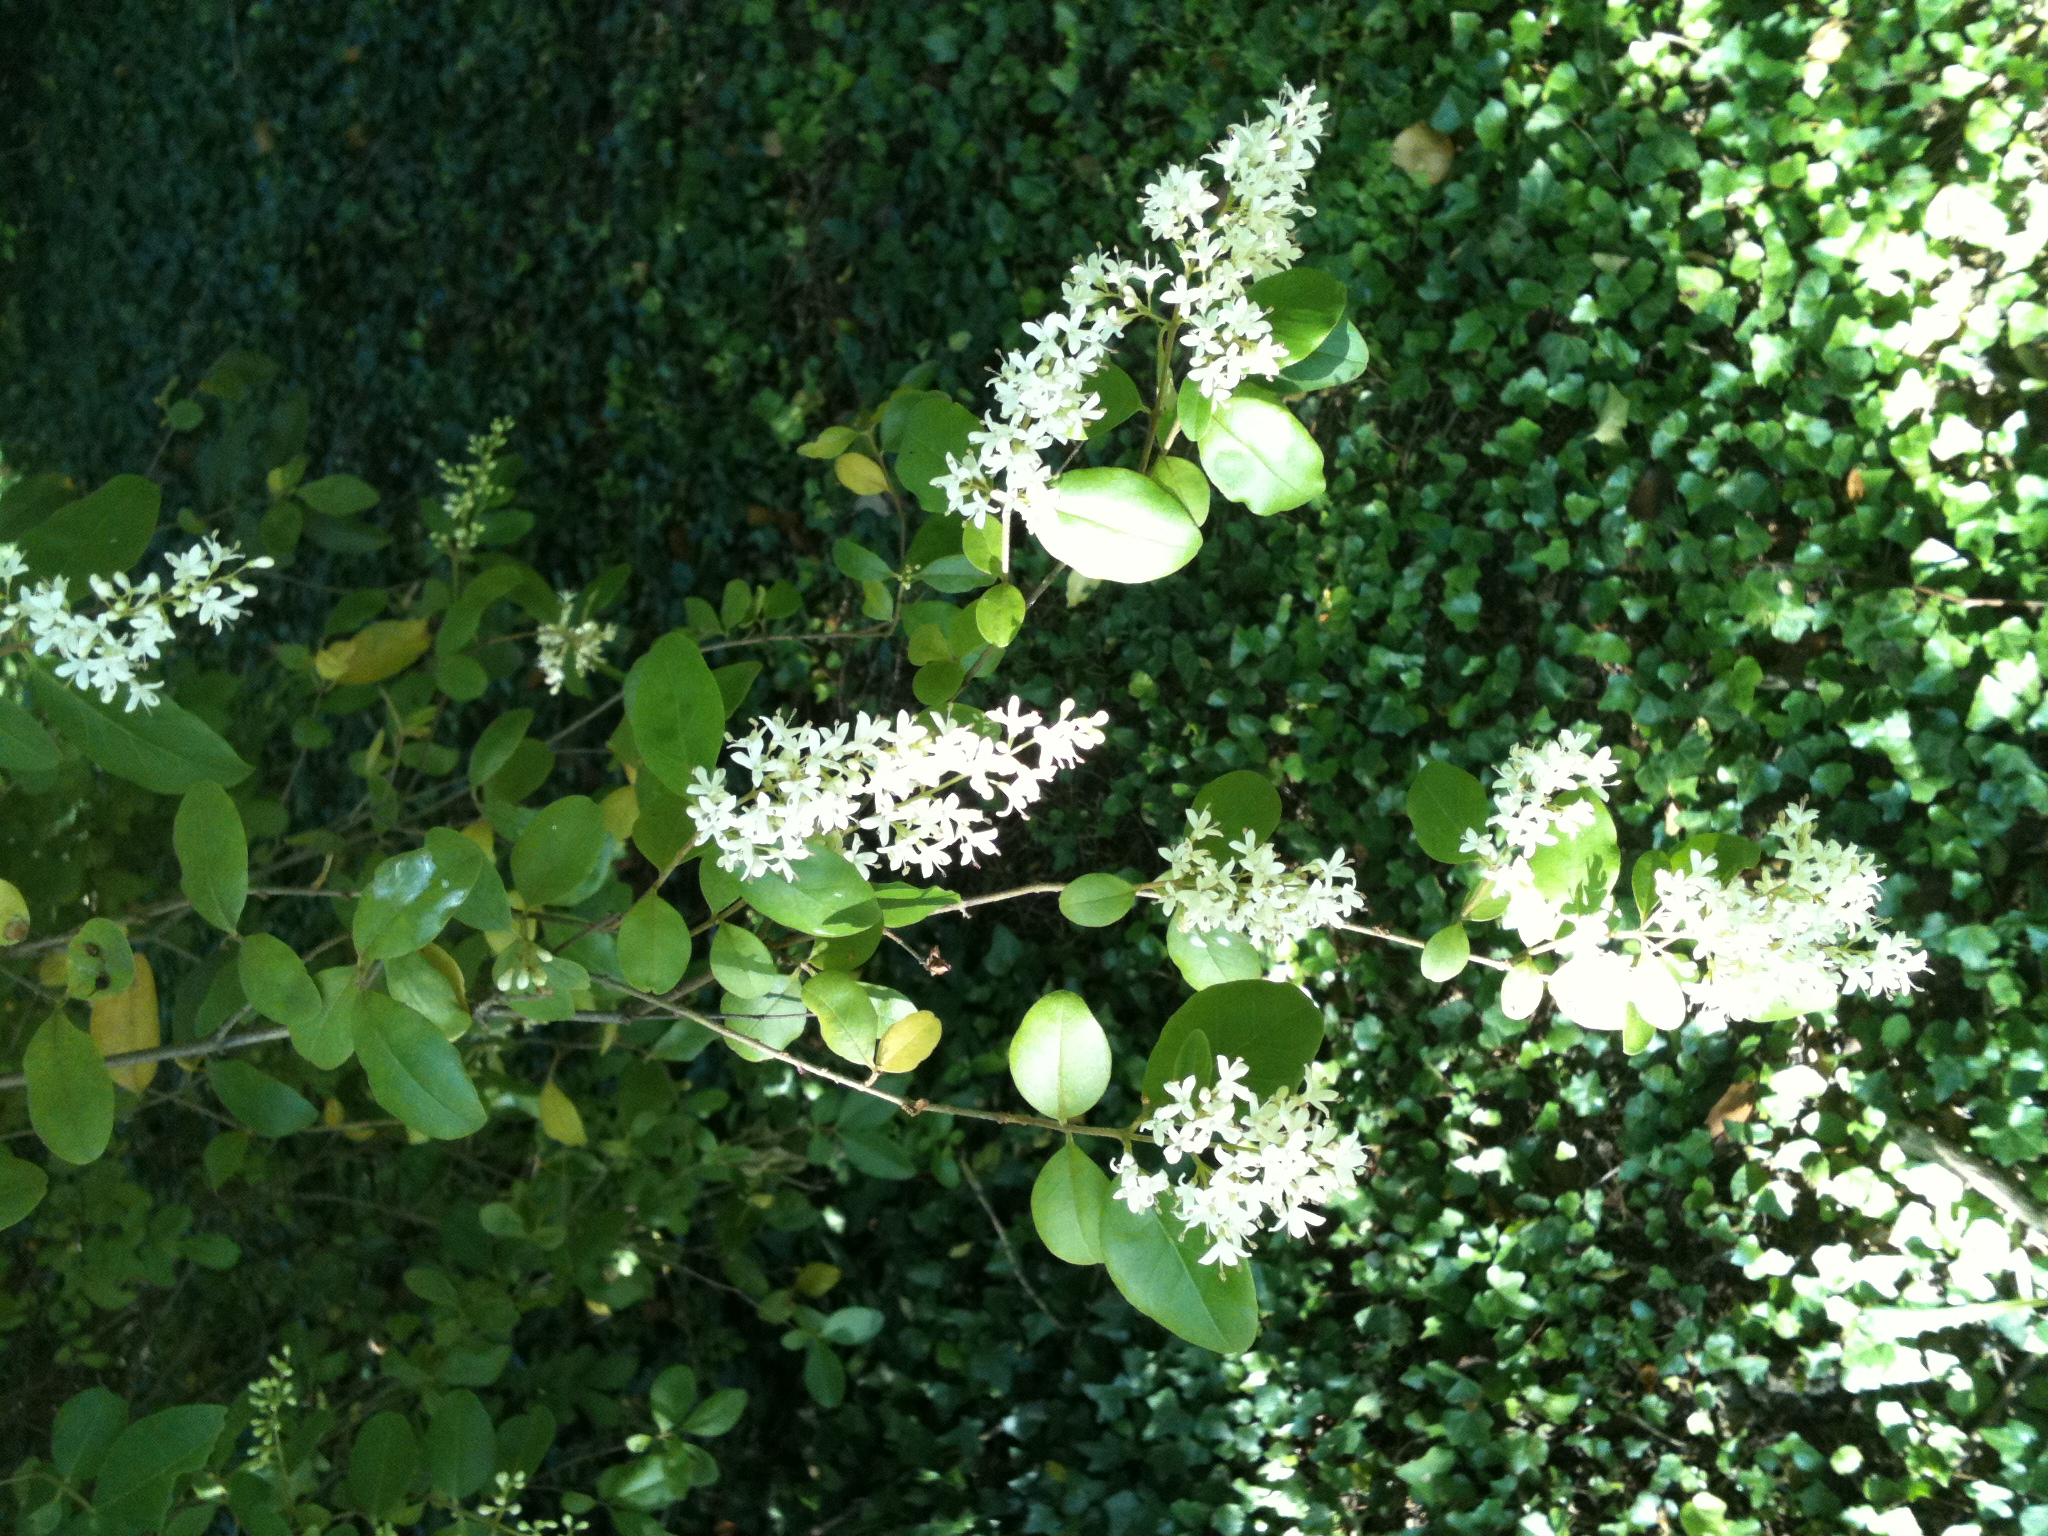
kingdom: Plantae
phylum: Tracheophyta
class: Magnoliopsida
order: Lamiales
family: Oleaceae
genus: Ligustrum
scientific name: Ligustrum sinense
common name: Chinese privet
